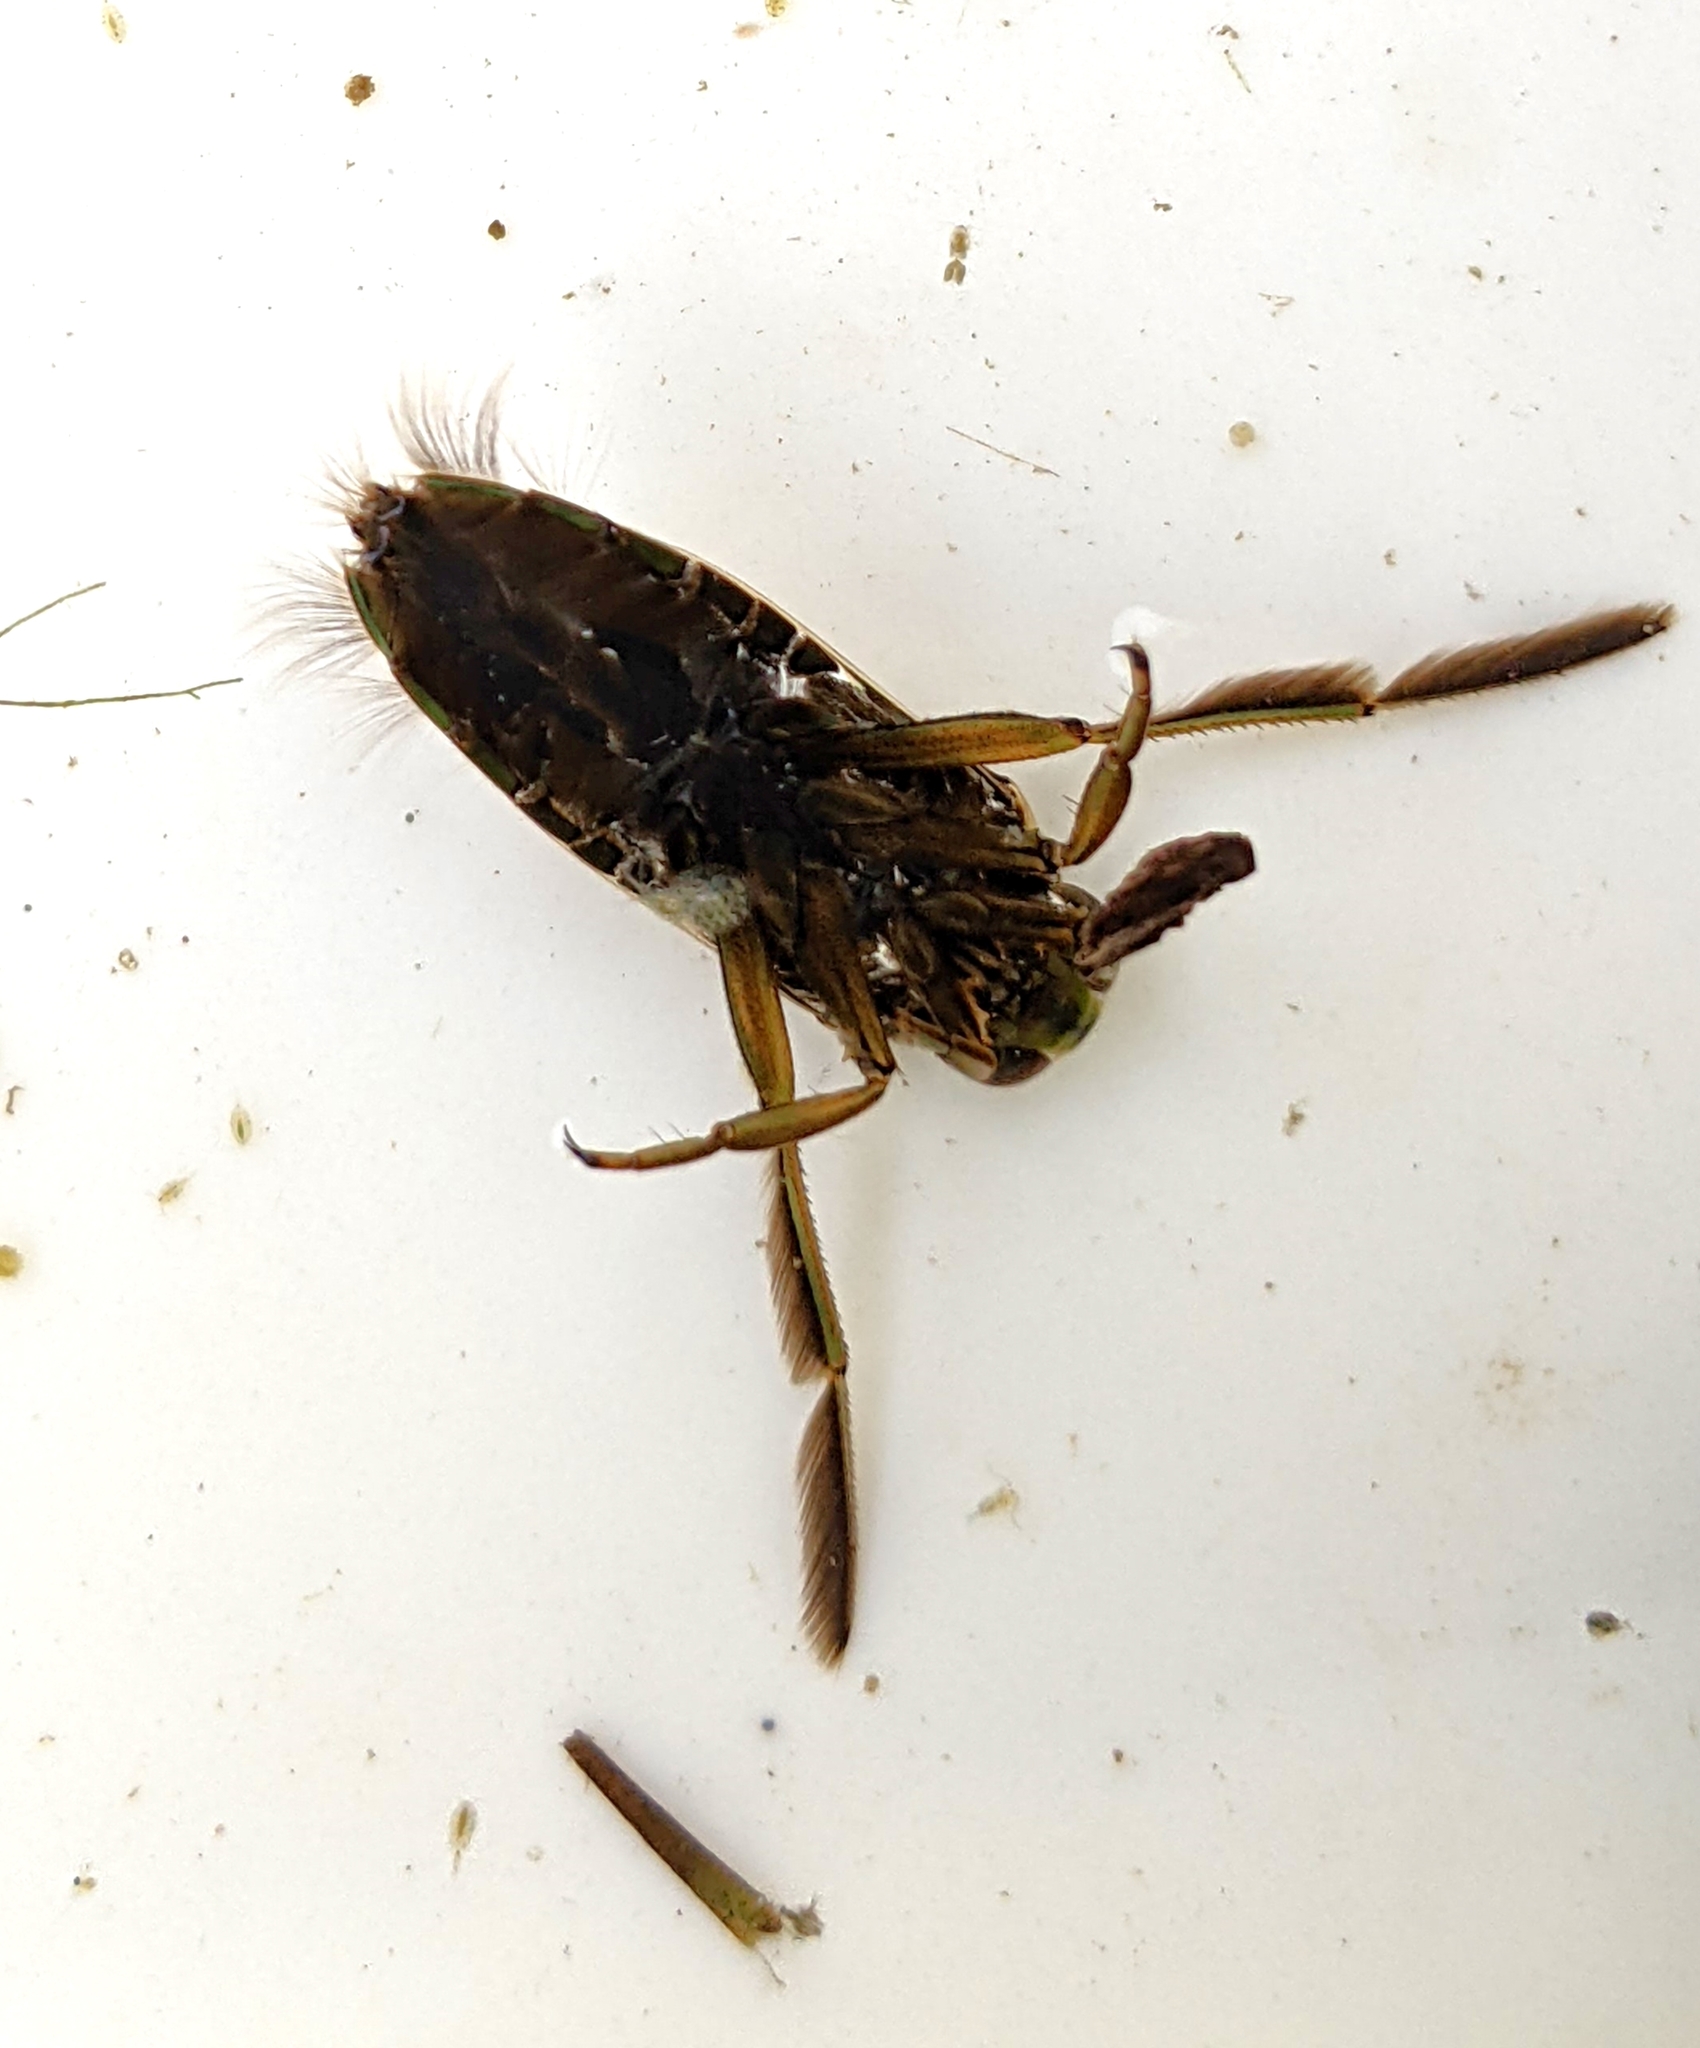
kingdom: Animalia
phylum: Arthropoda
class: Insecta
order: Hemiptera
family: Notonectidae
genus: Notonecta
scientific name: Notonecta
